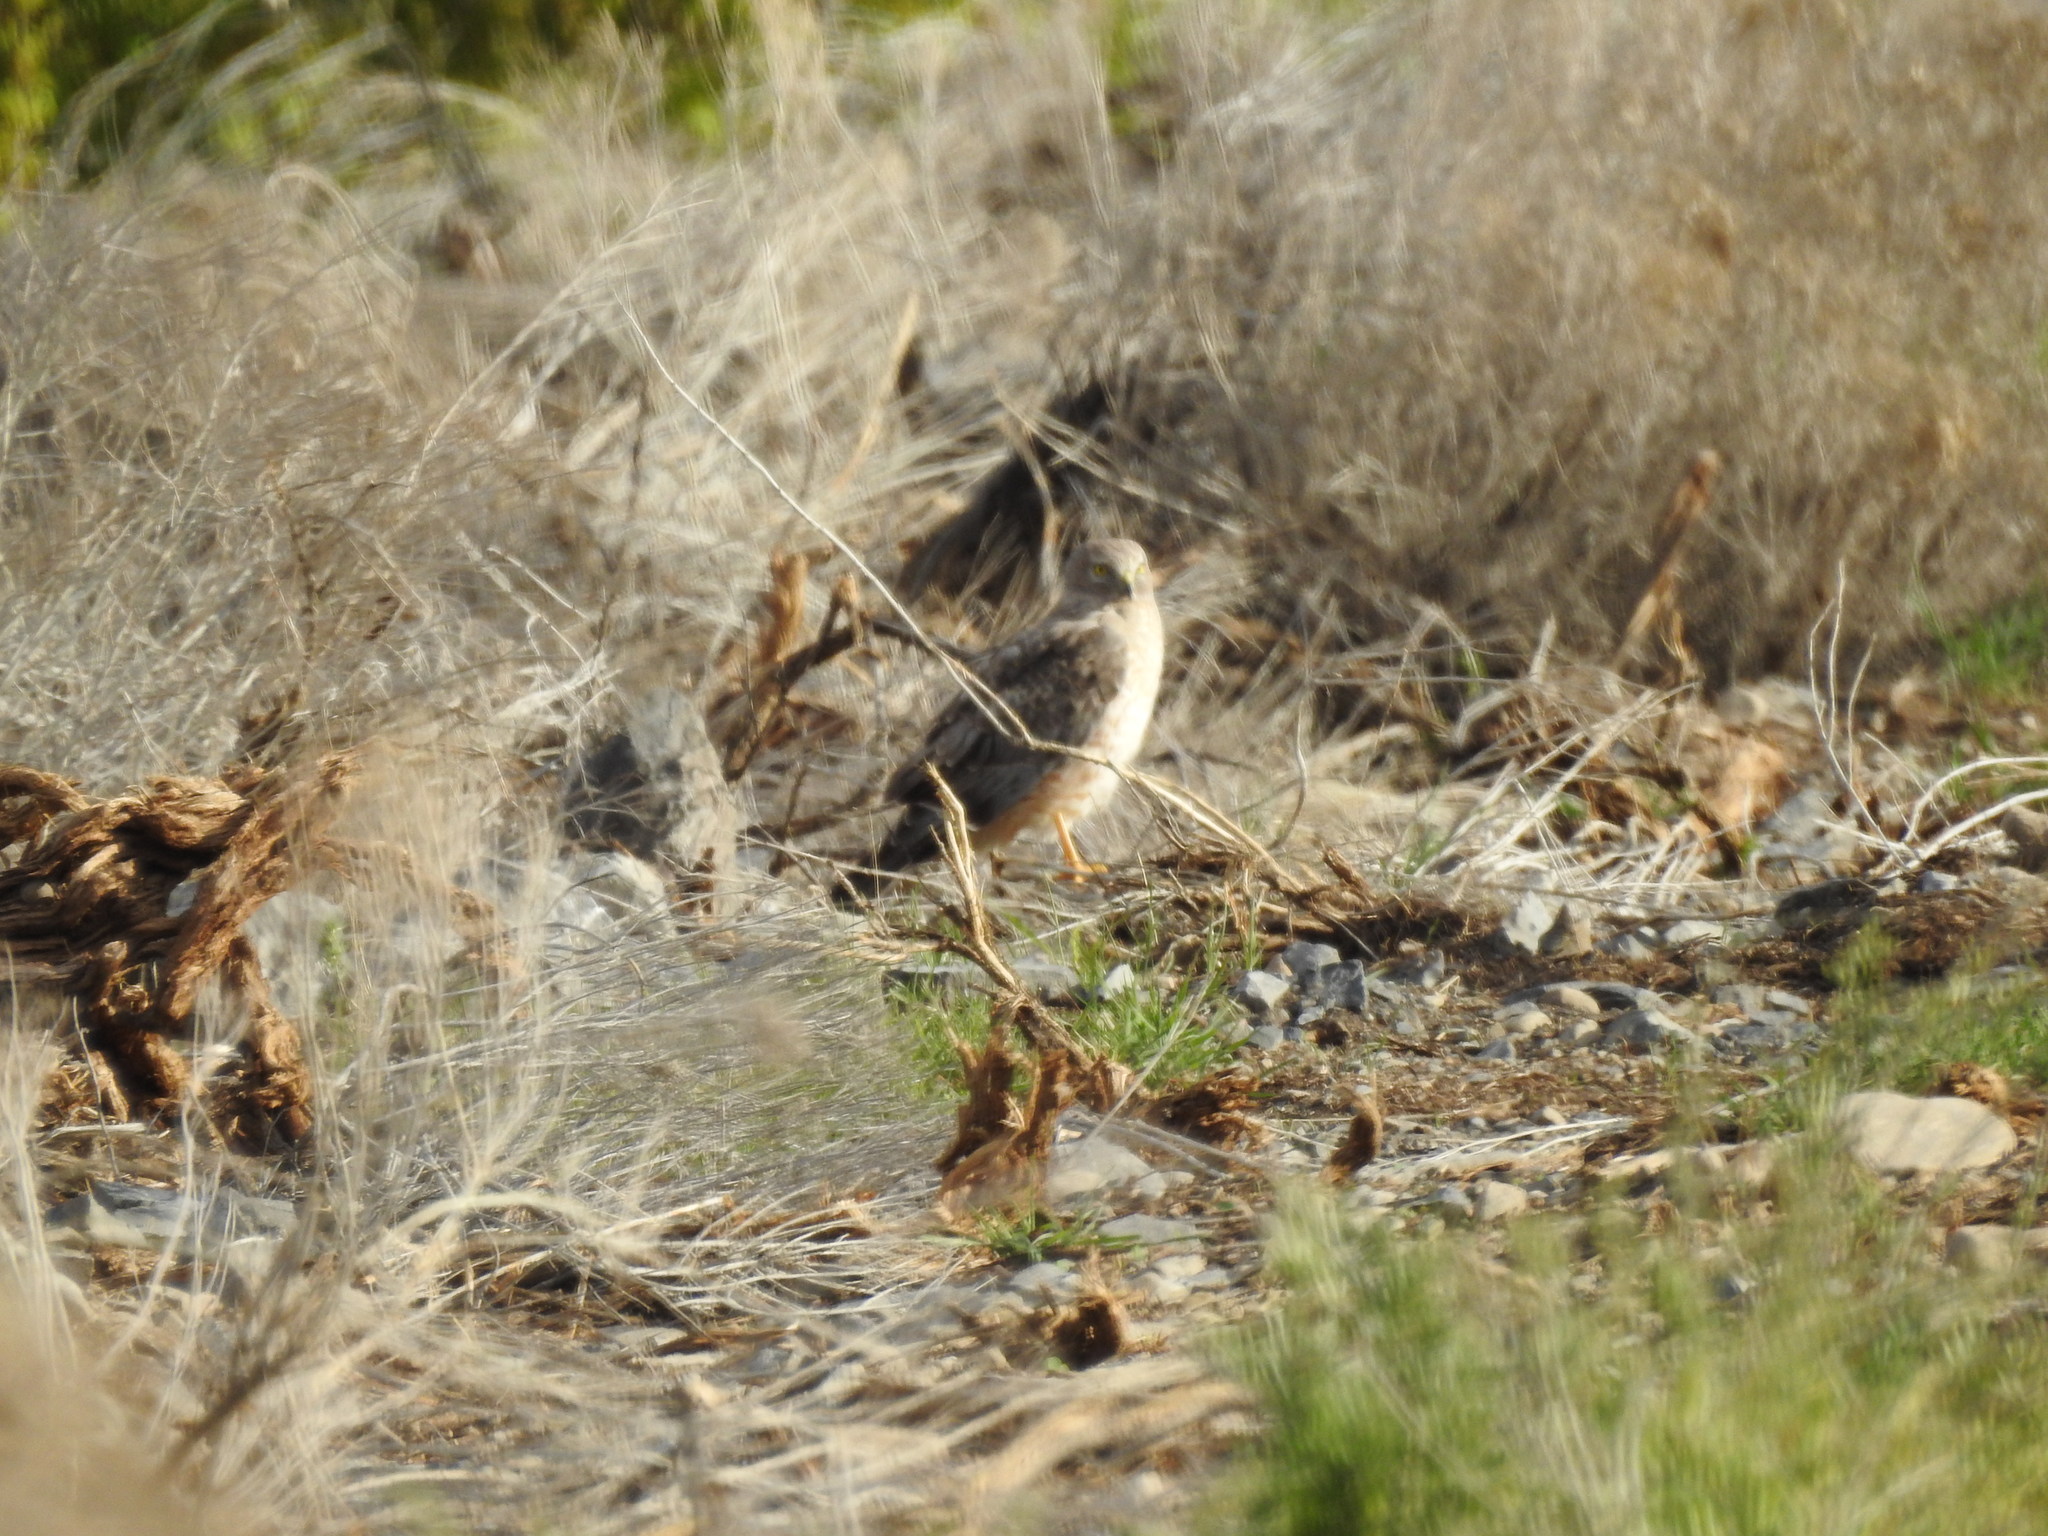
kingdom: Animalia
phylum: Chordata
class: Aves
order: Accipitriformes
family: Accipitridae
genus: Circus
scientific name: Circus cyaneus
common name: Hen harrier
